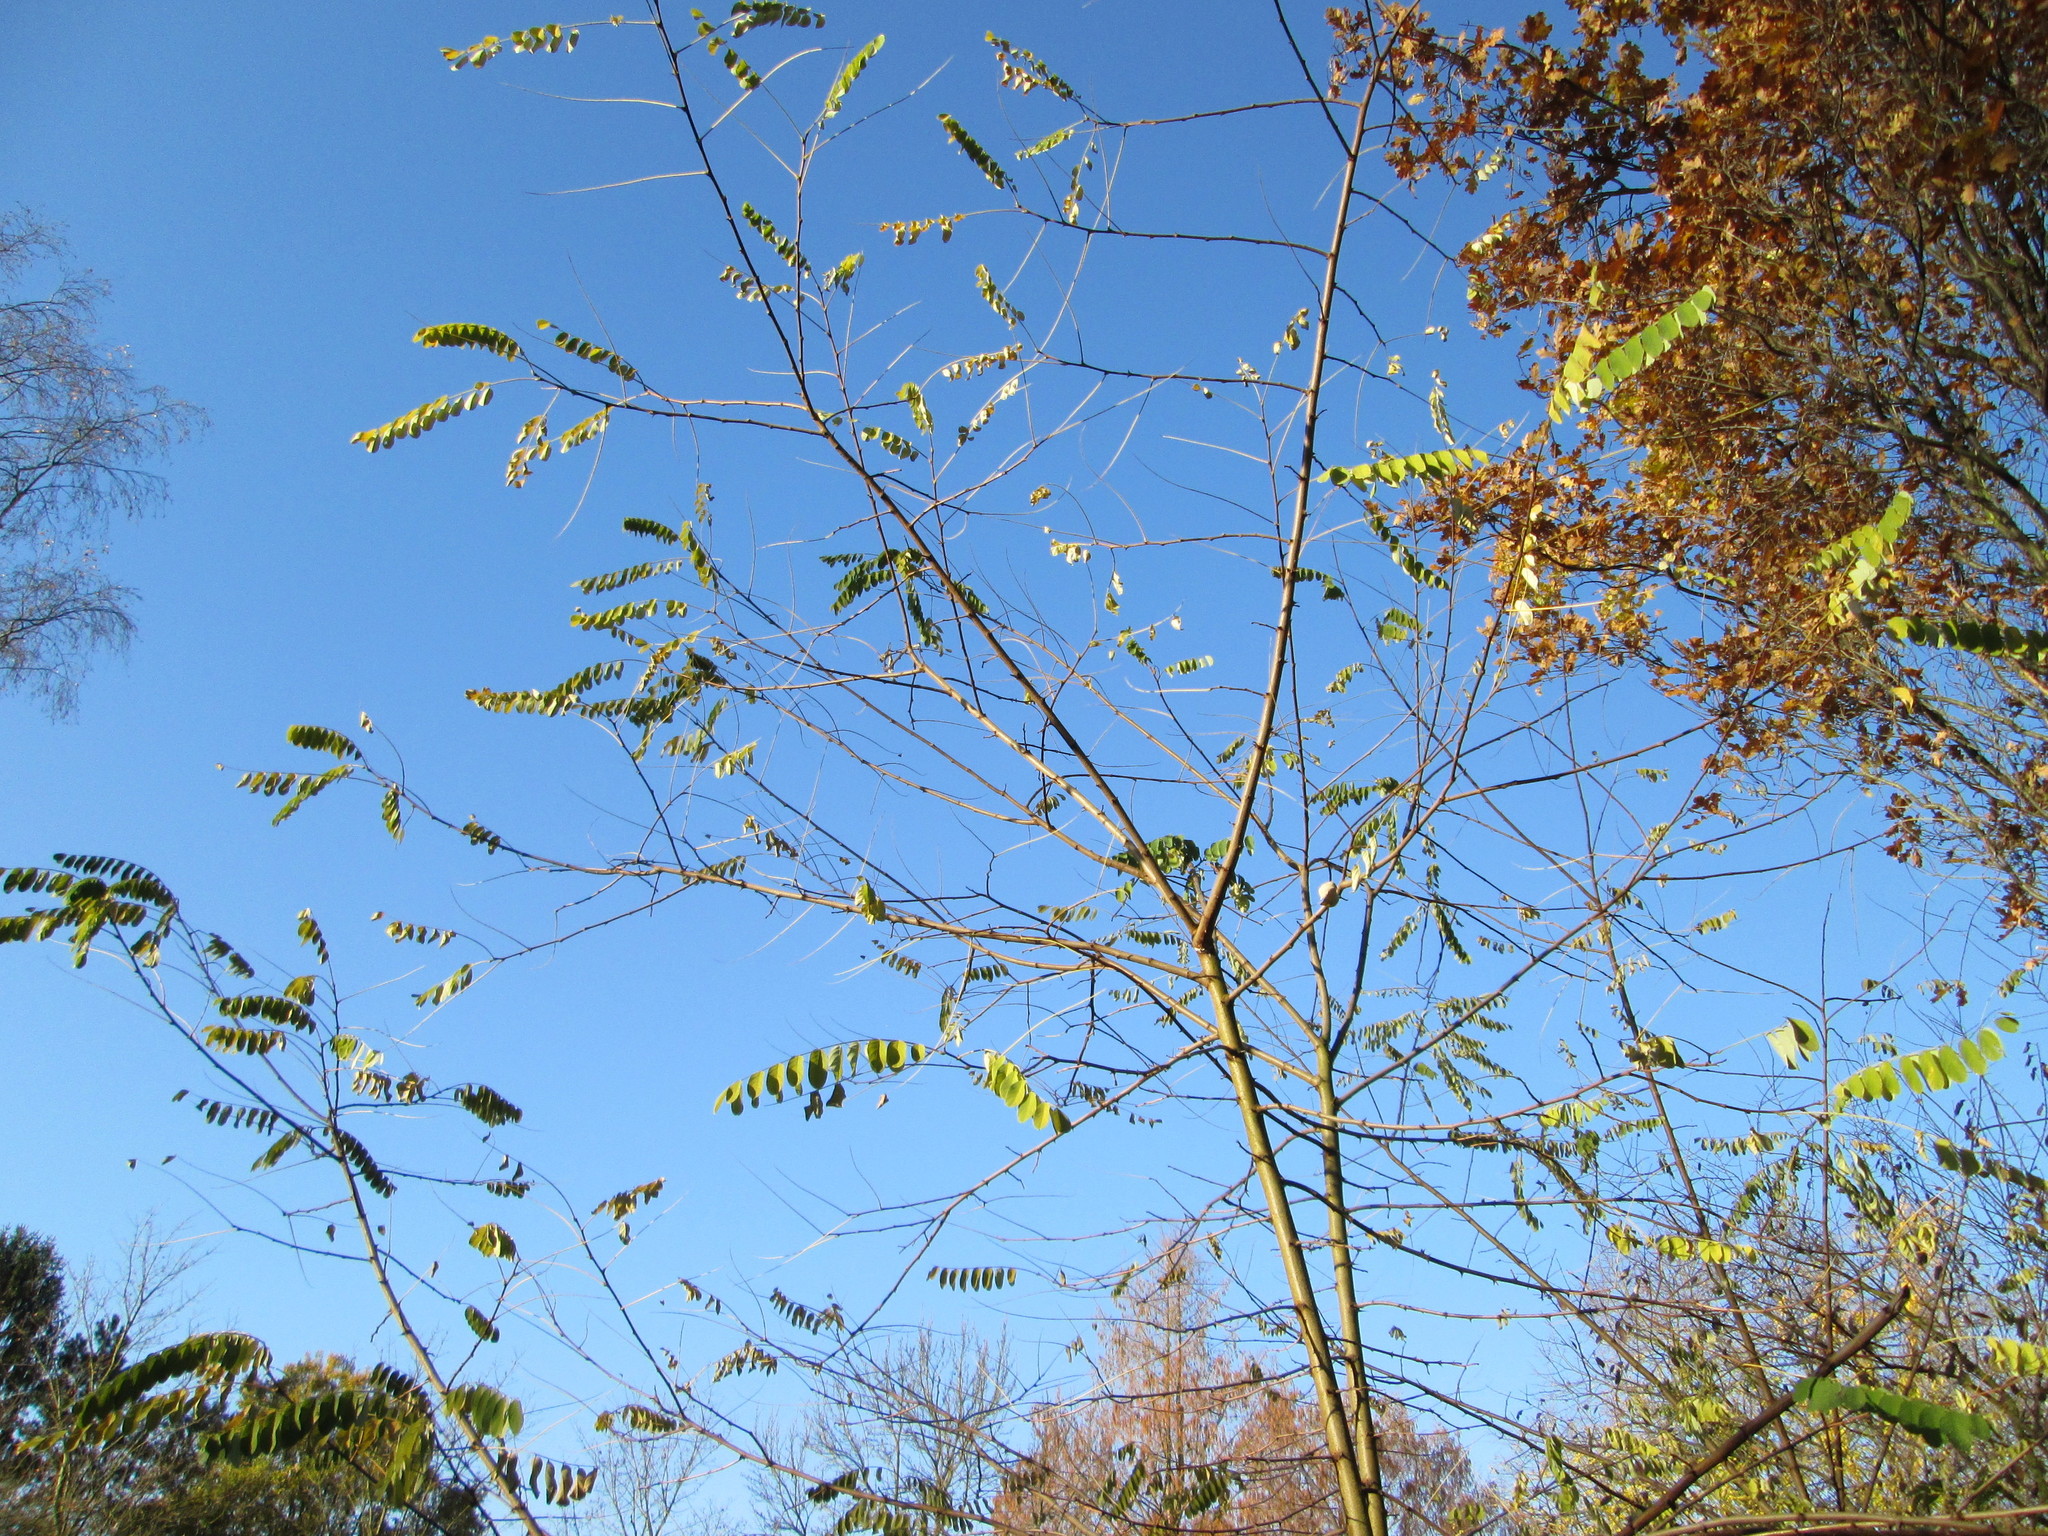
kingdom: Plantae
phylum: Tracheophyta
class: Magnoliopsida
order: Fabales
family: Fabaceae
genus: Robinia
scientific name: Robinia pseudoacacia
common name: Black locust
